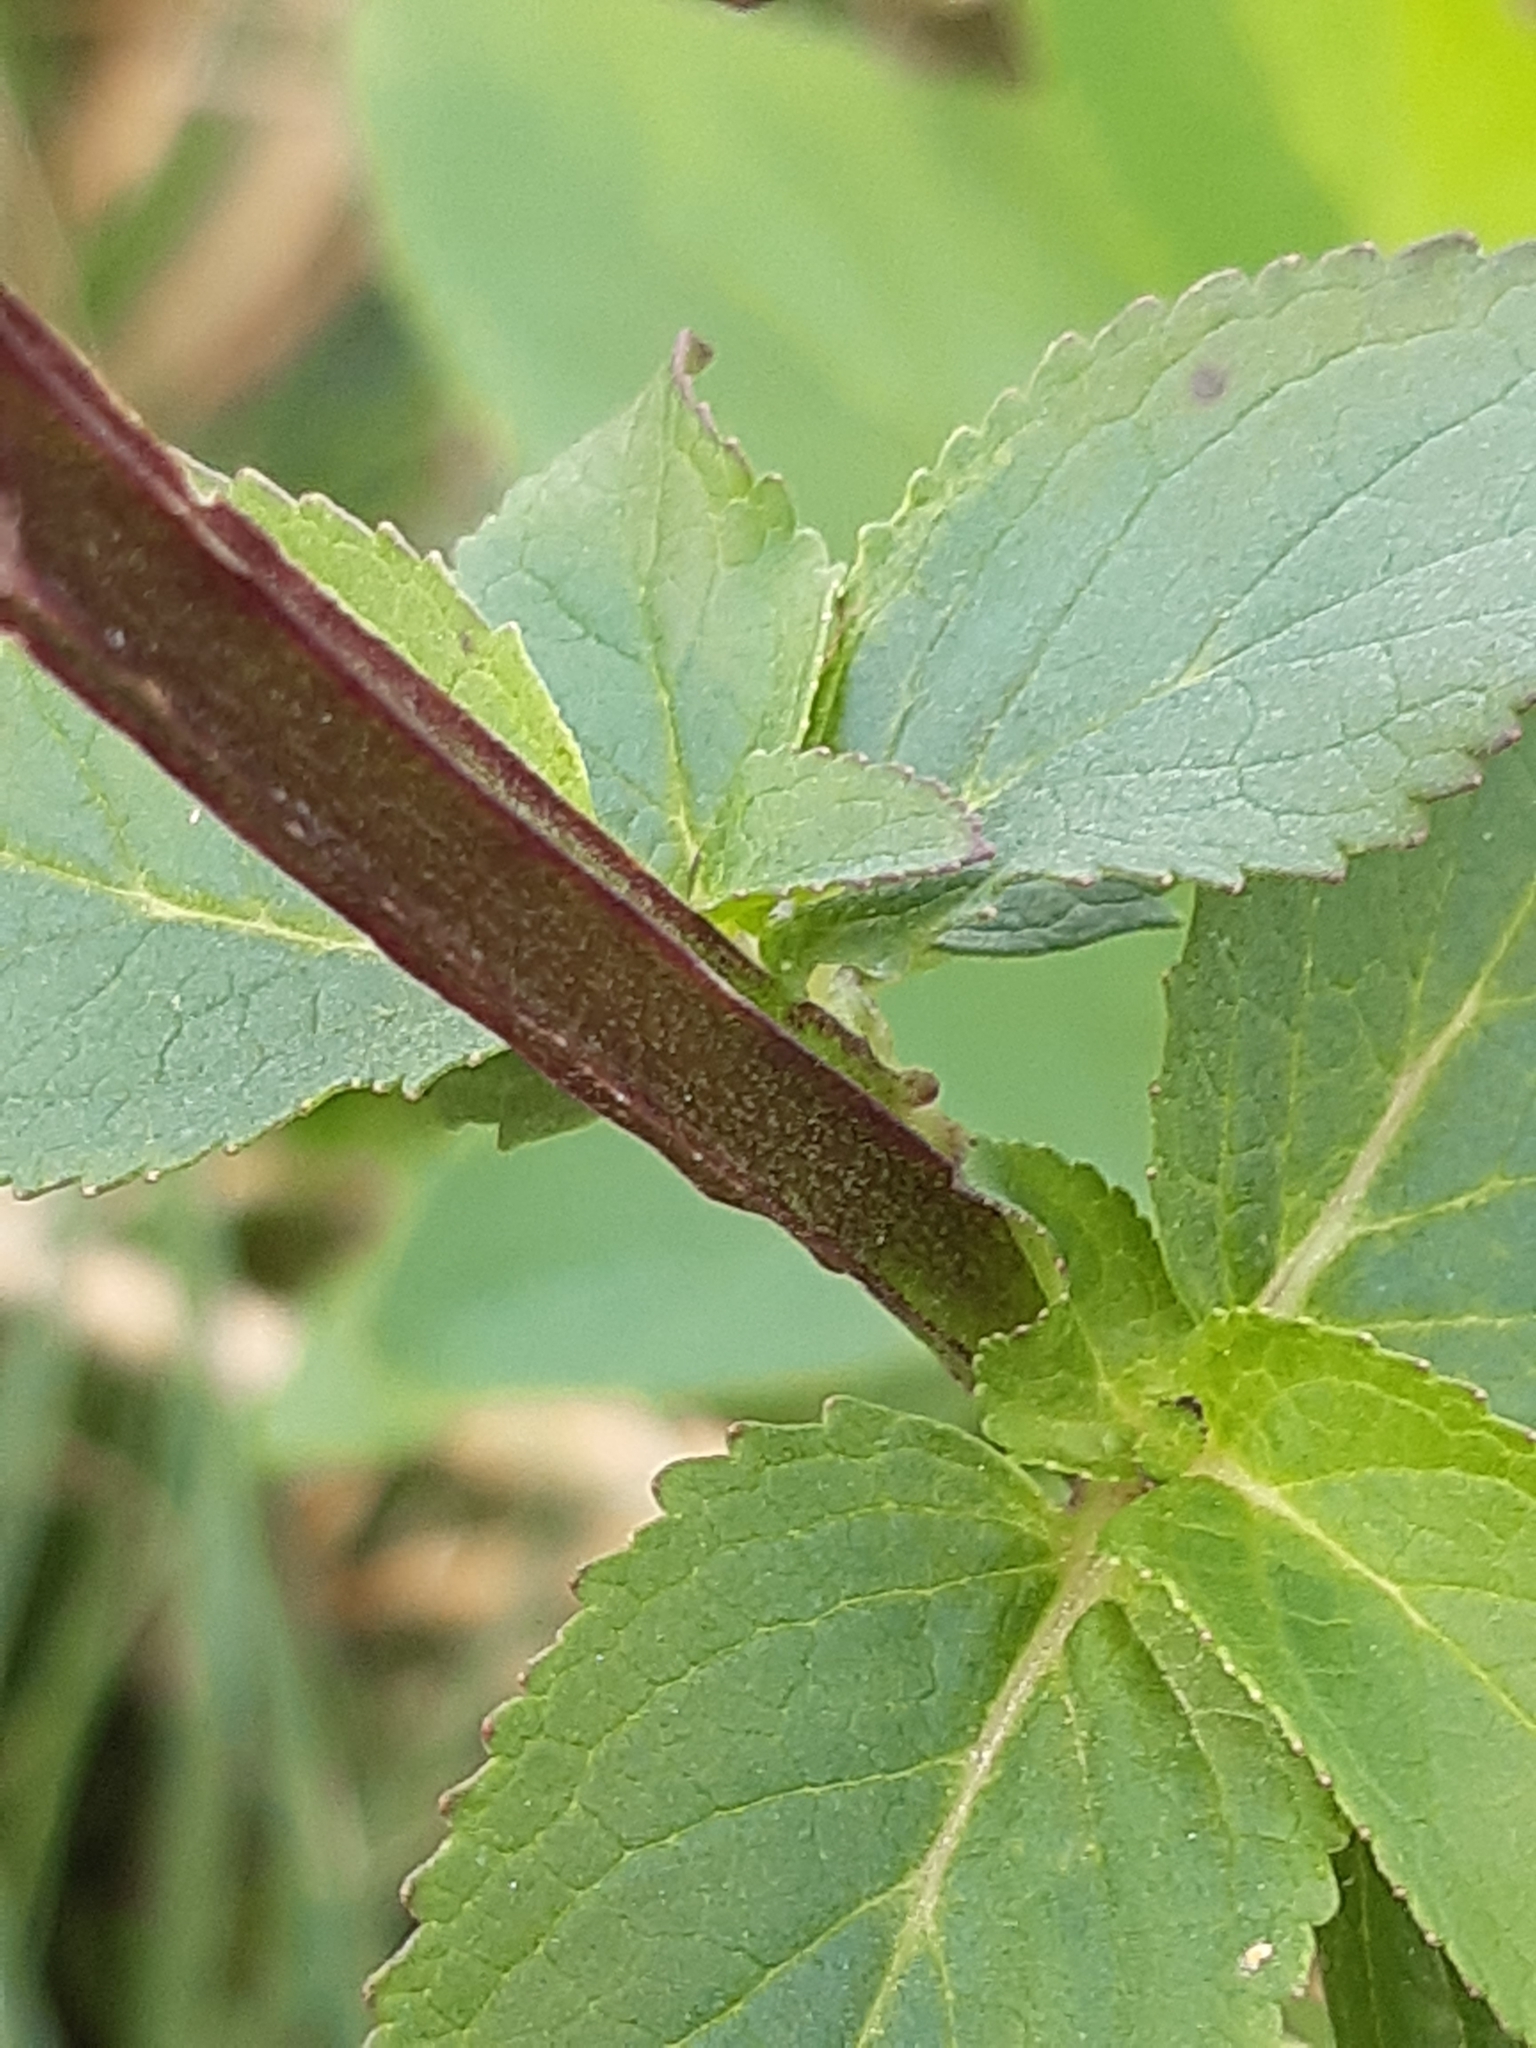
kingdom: Plantae
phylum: Tracheophyta
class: Magnoliopsida
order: Lamiales
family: Scrophulariaceae
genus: Scrophularia
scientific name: Scrophularia umbrosa
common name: Green figwort
